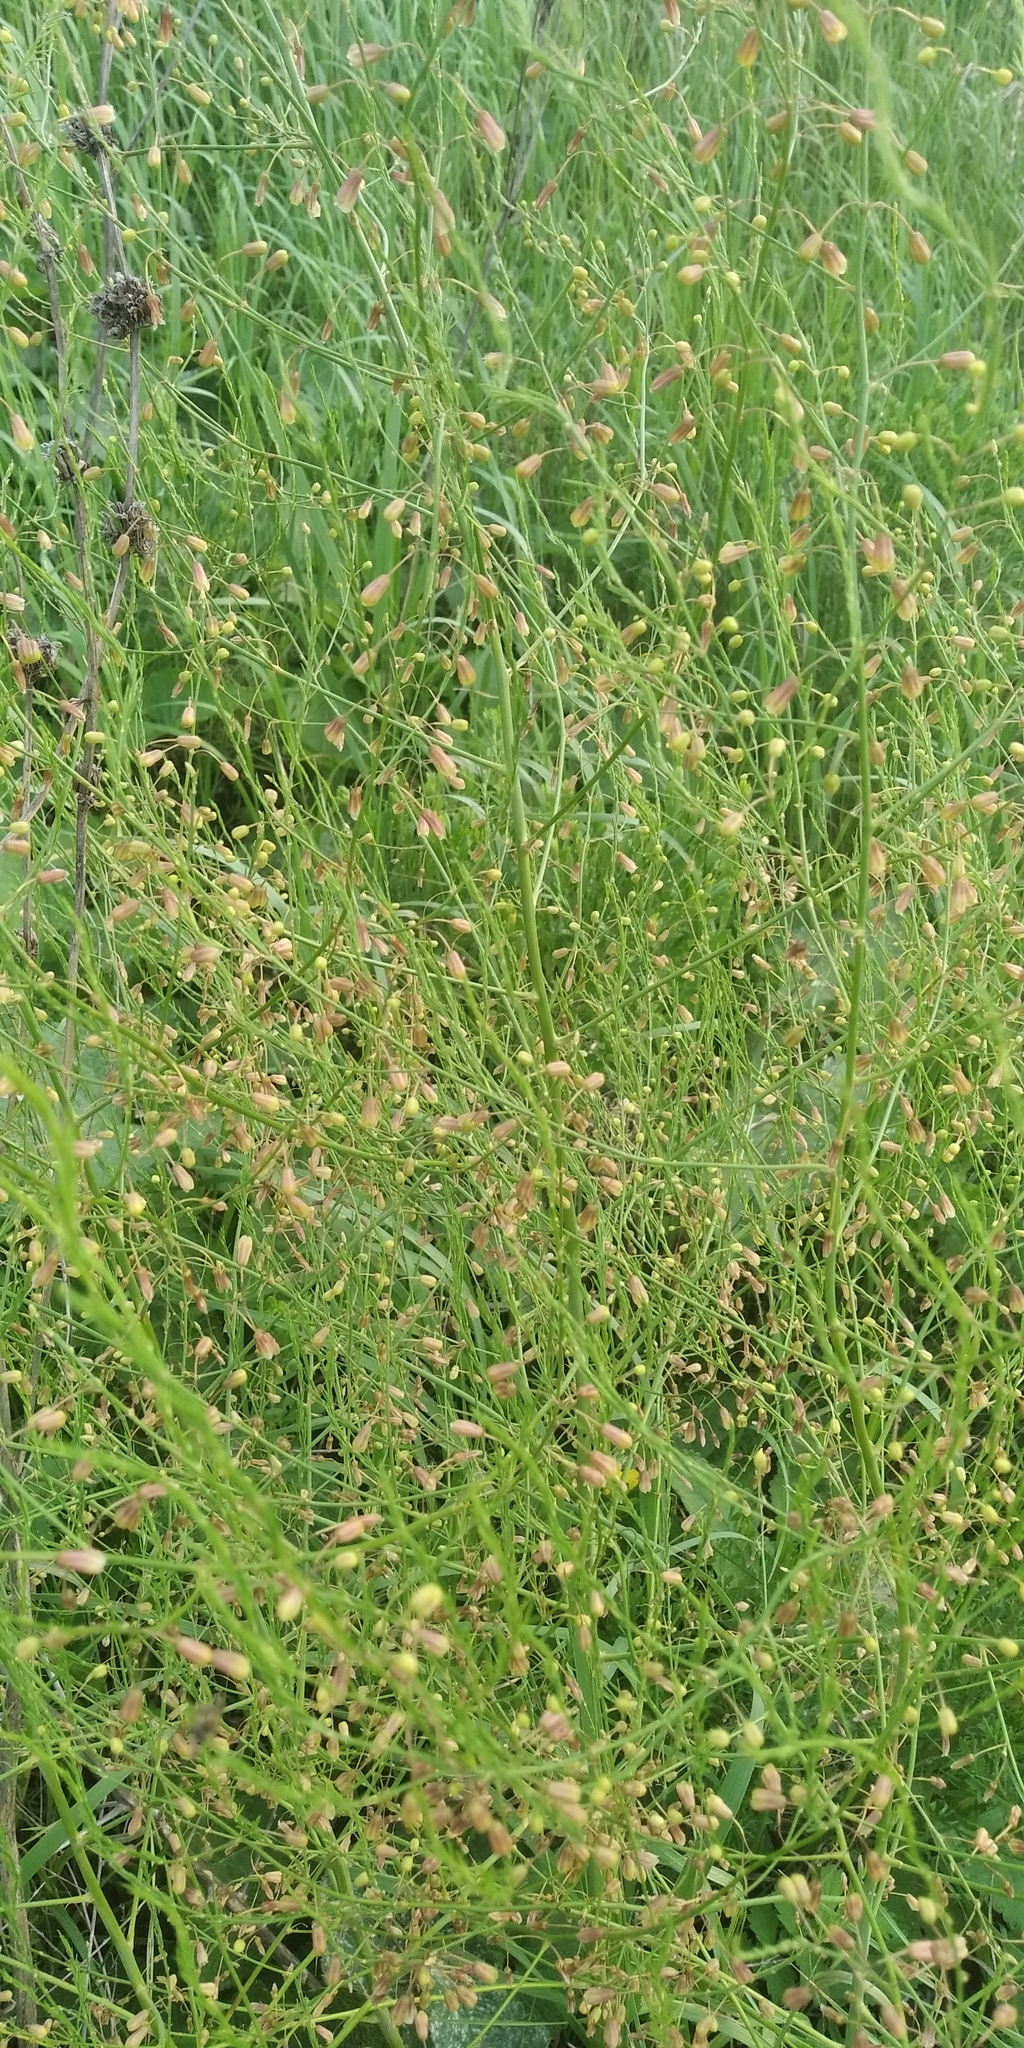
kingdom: Plantae
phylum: Tracheophyta
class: Liliopsida
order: Asparagales
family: Asparagaceae
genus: Asparagus
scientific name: Asparagus officinalis
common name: Garden asparagus
